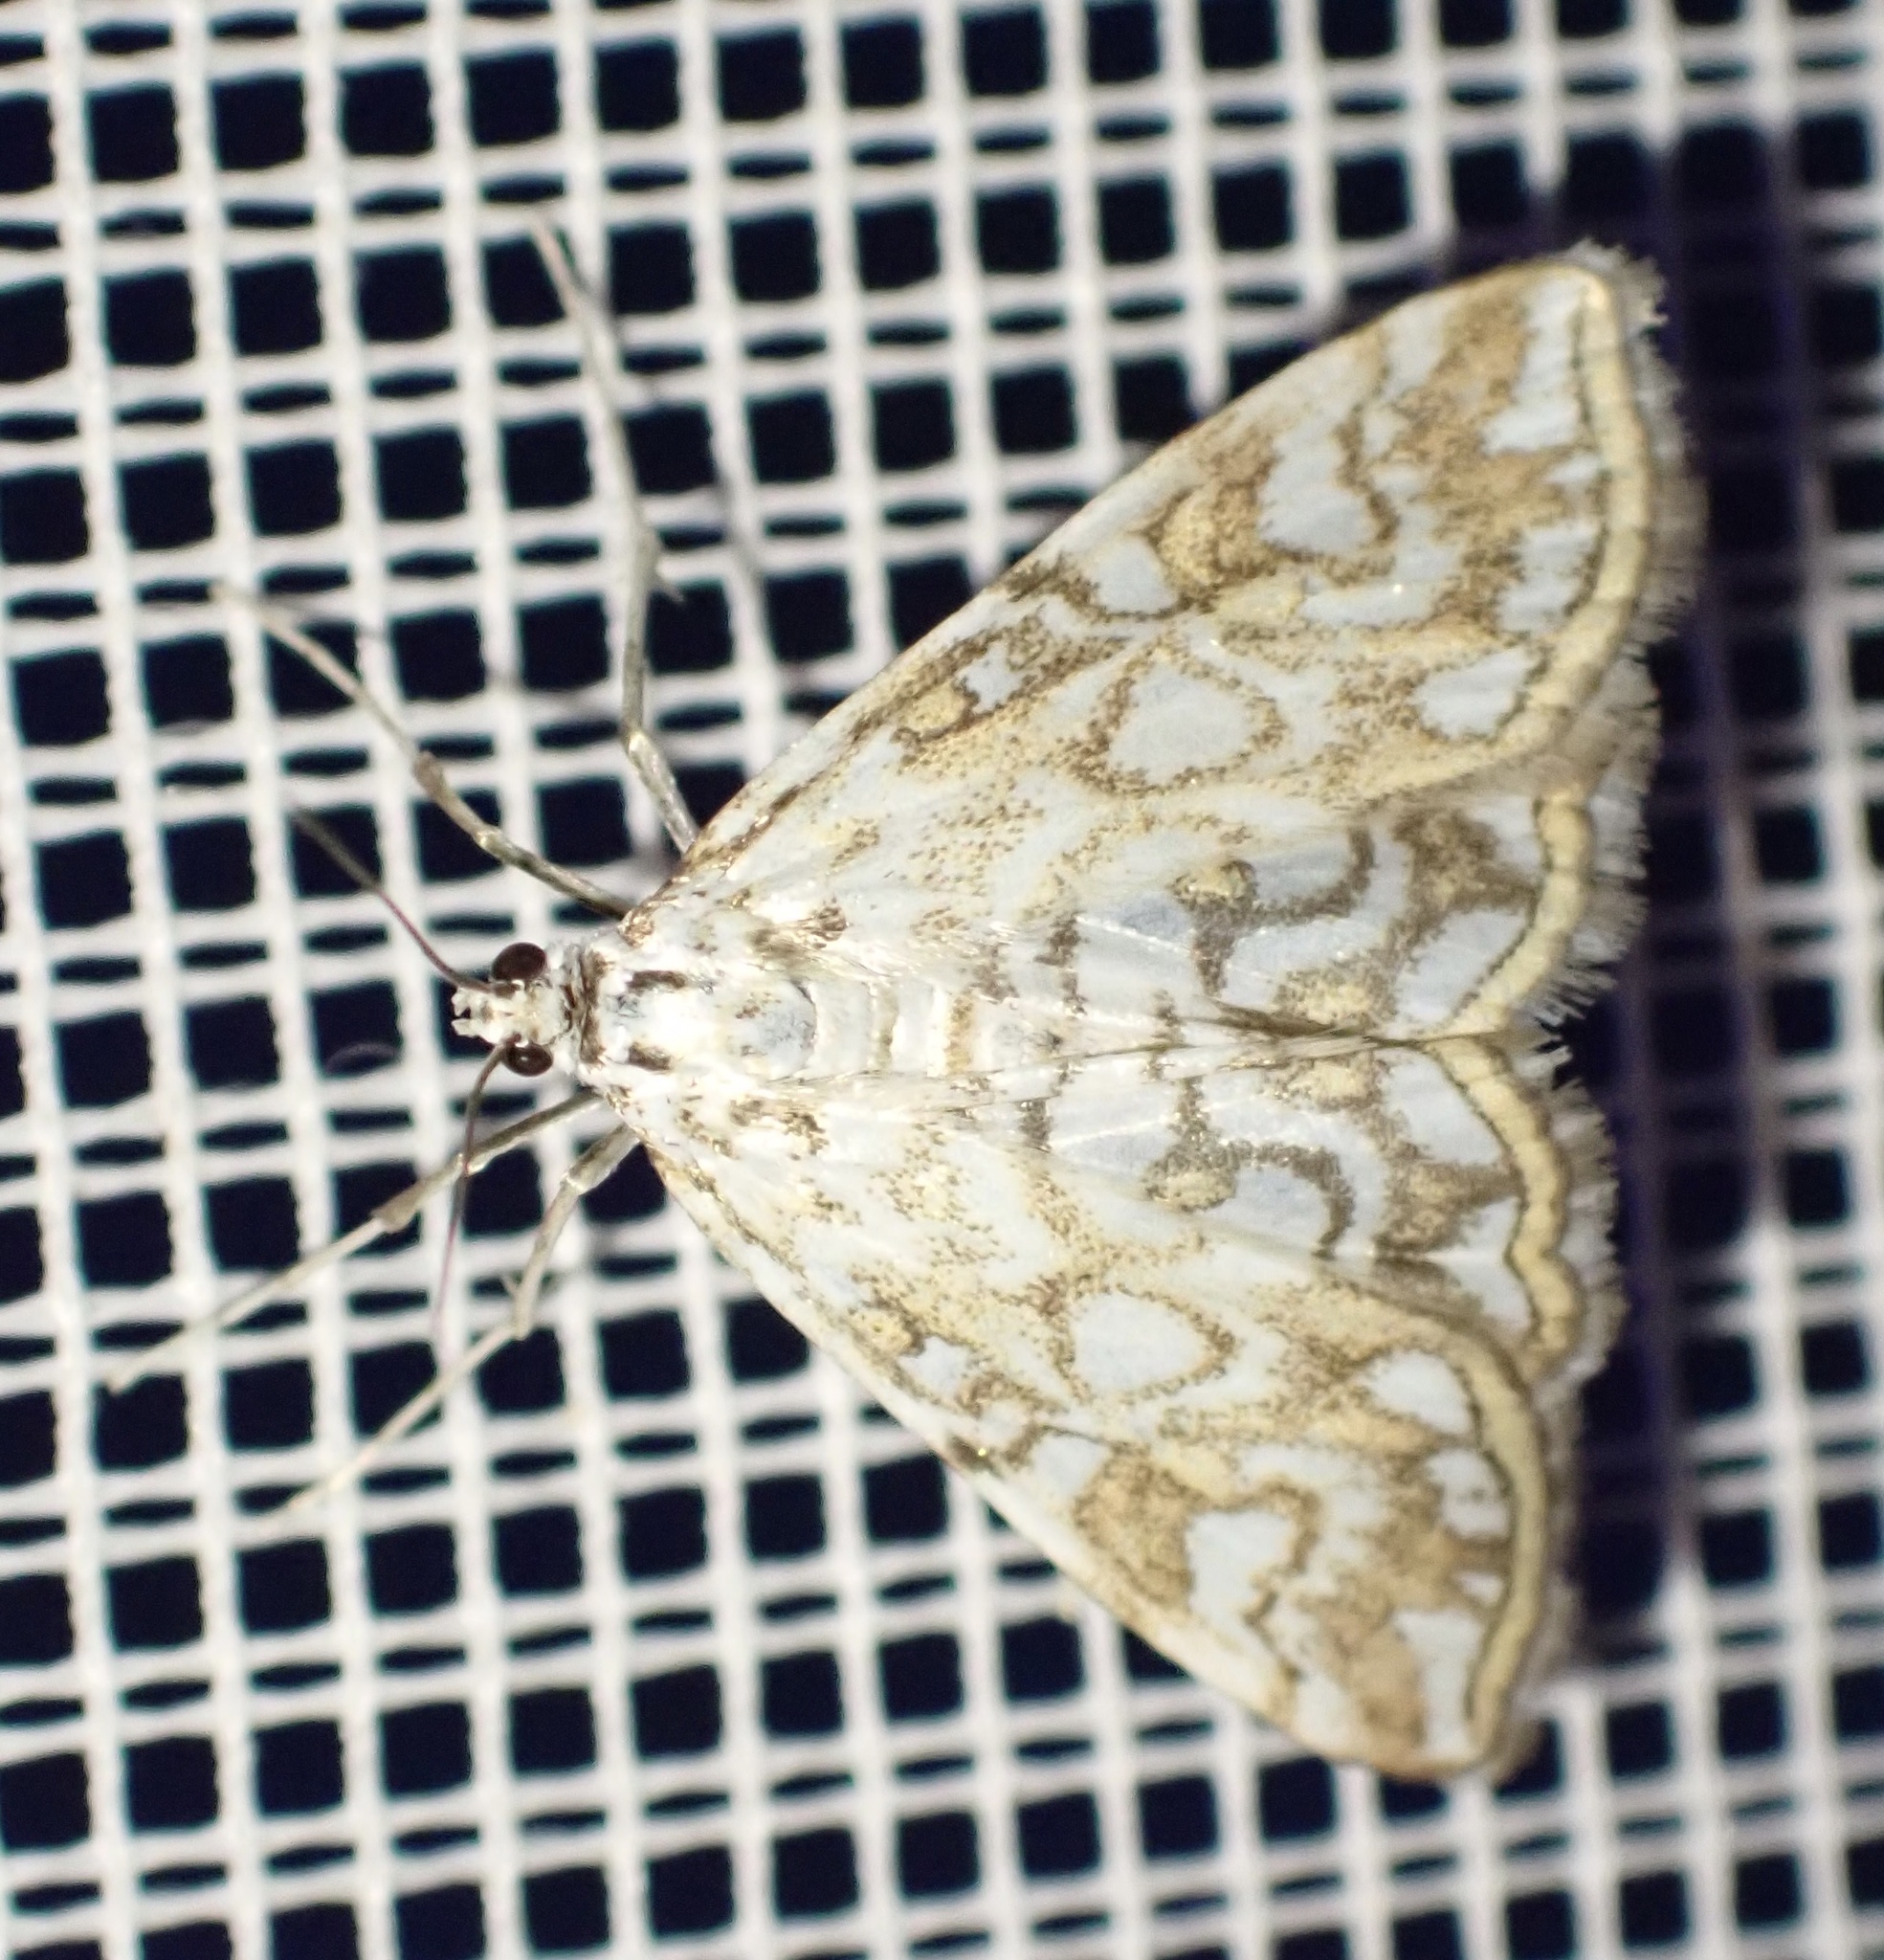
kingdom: Animalia
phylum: Arthropoda
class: Insecta
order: Lepidoptera
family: Crambidae
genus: Elophila
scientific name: Elophila nymphaeata
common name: Brown china-mark
